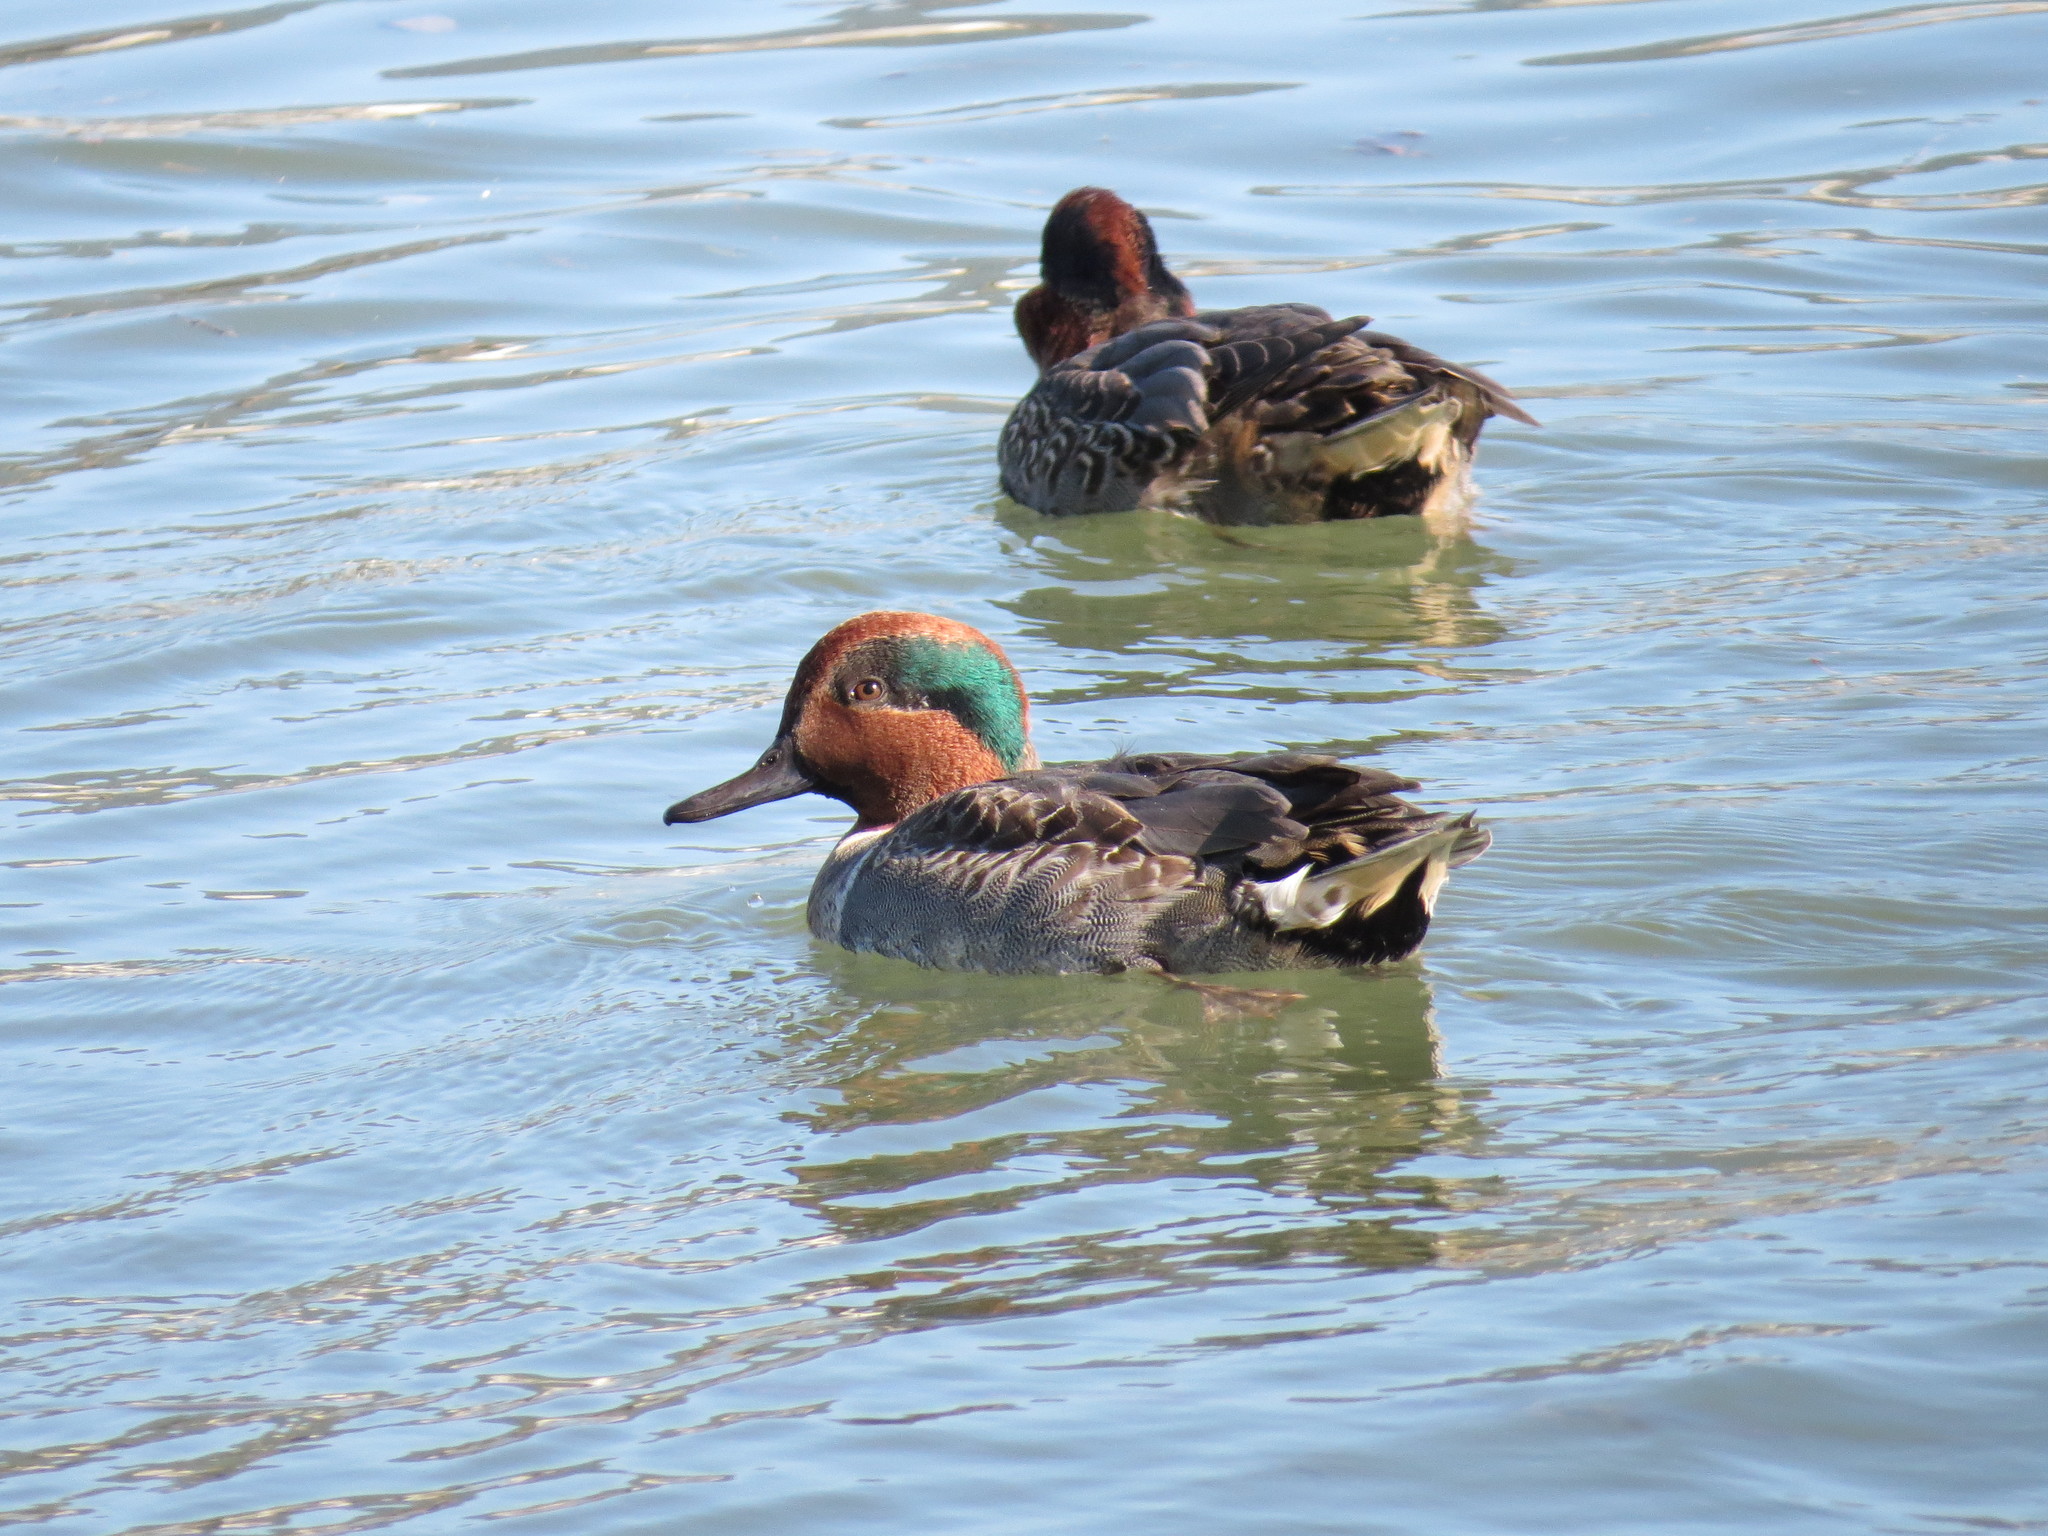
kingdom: Animalia
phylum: Chordata
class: Aves
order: Anseriformes
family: Anatidae
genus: Anas
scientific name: Anas crecca
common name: Eurasian teal
